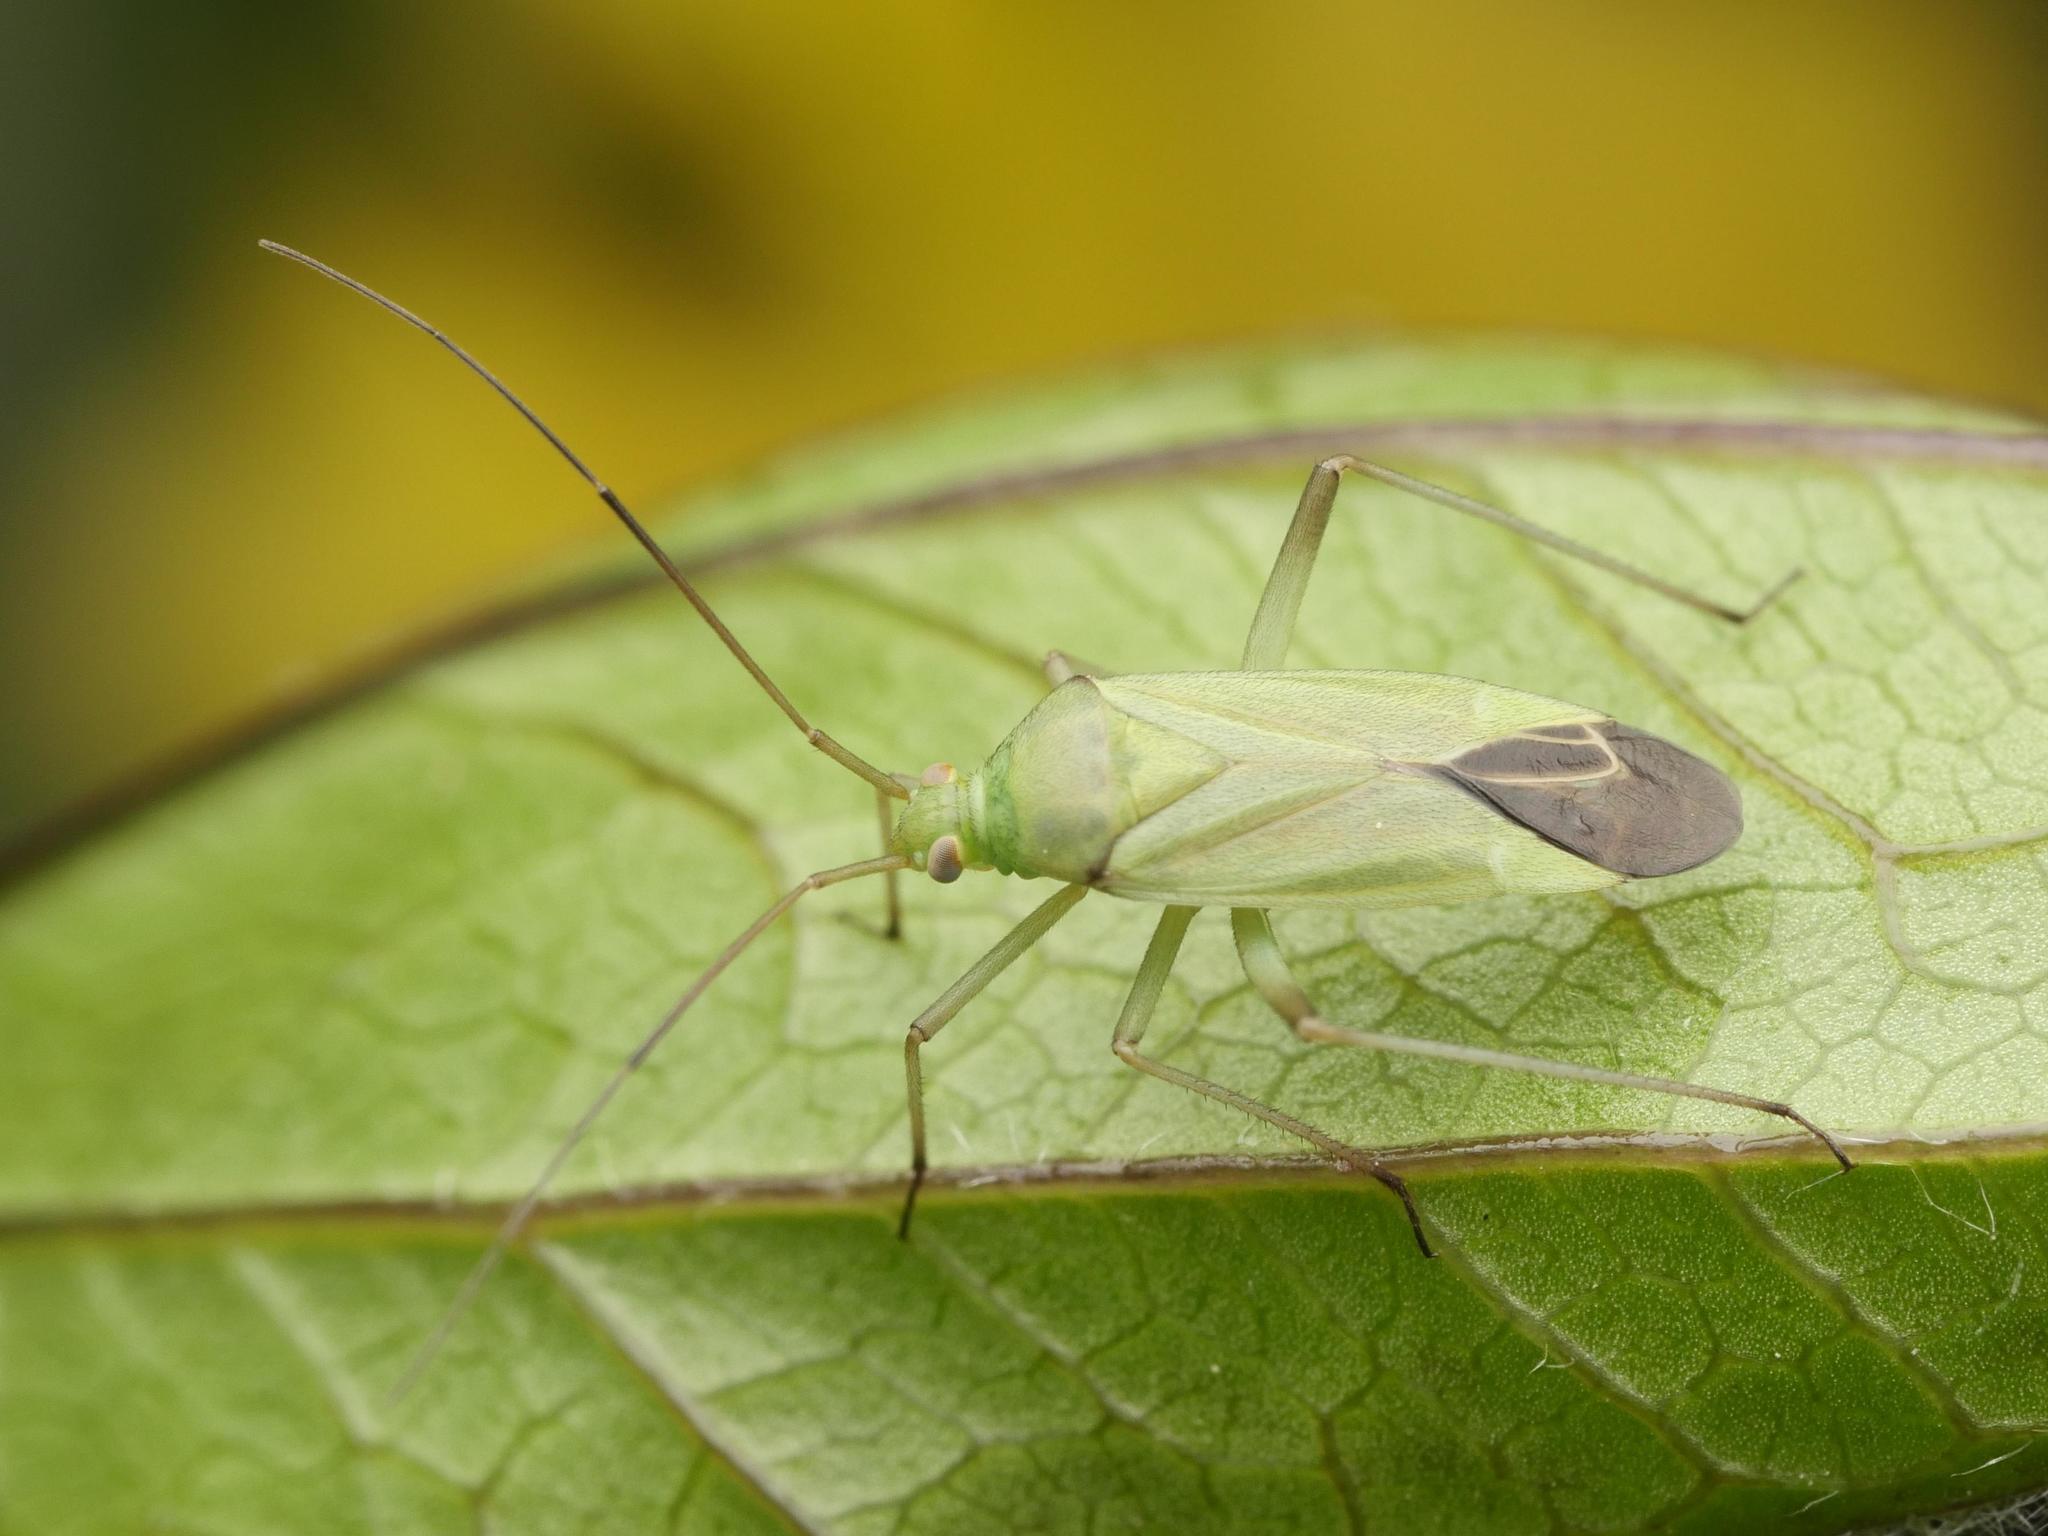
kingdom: Animalia
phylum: Arthropoda
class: Insecta
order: Hemiptera
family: Miridae
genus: Calocoris
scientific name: Calocoris affinis
